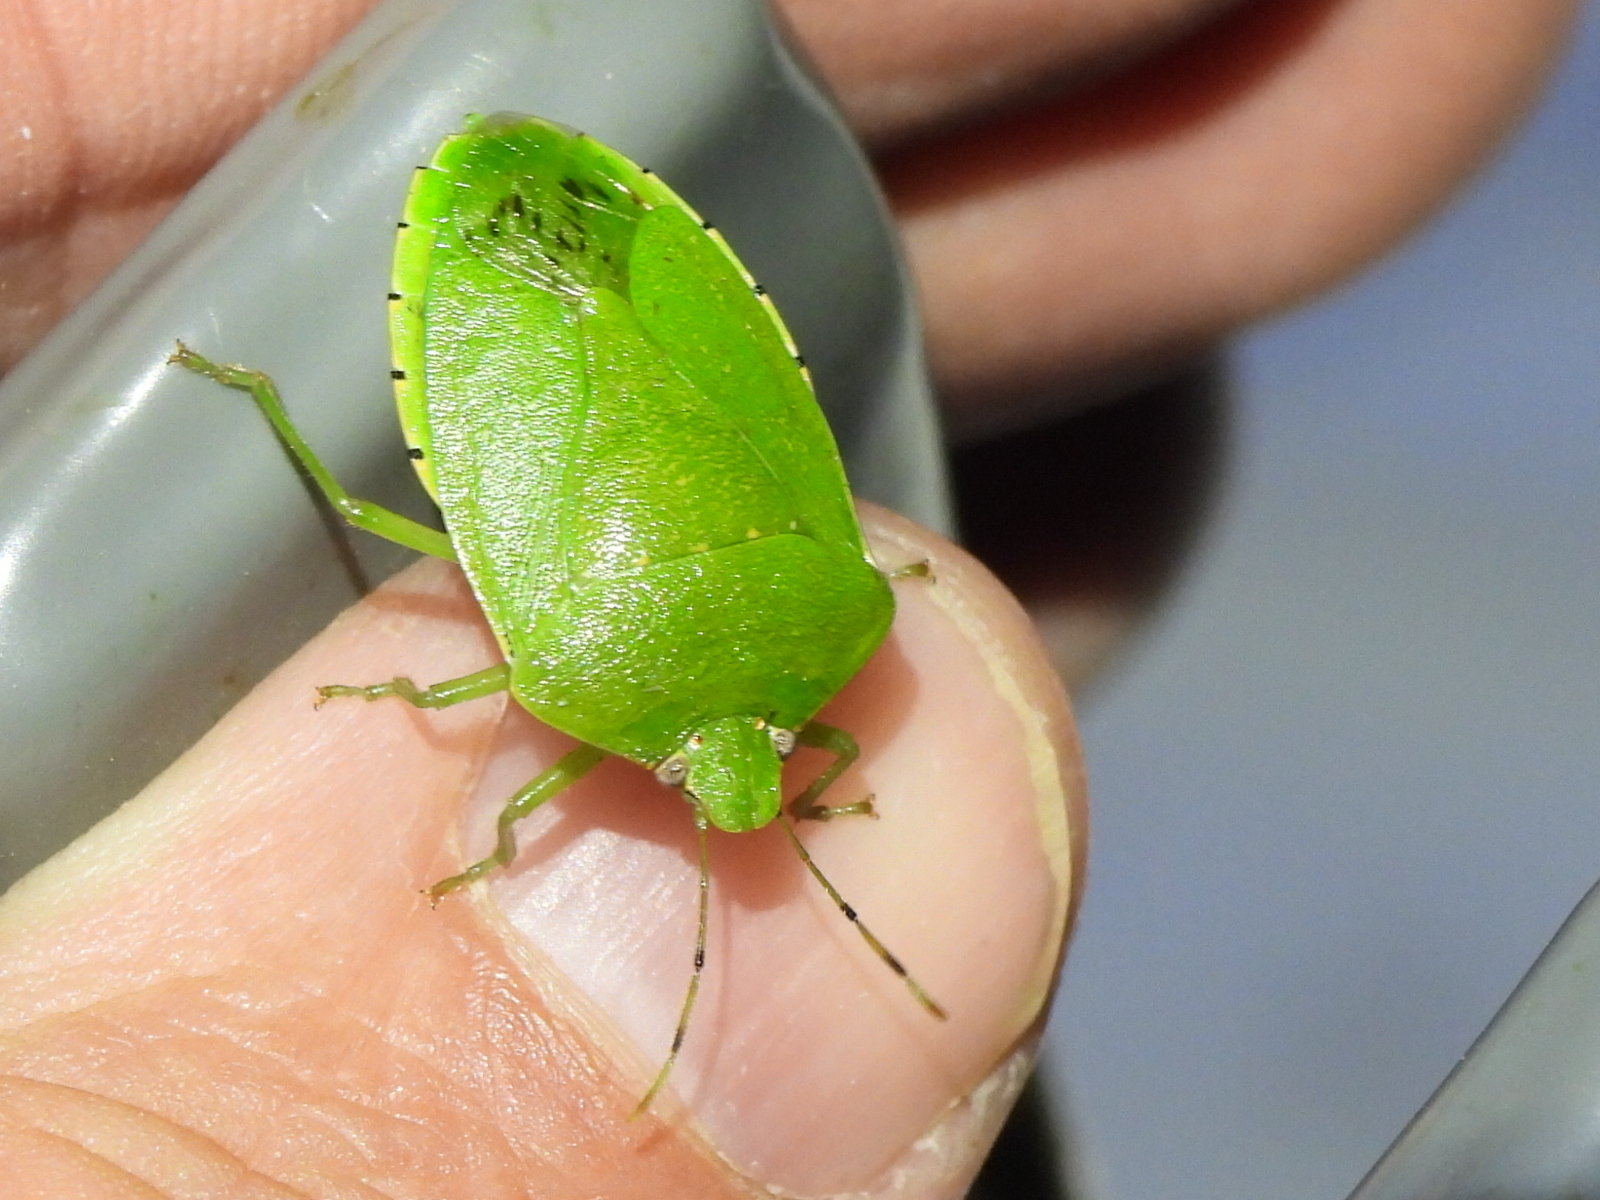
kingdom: Animalia
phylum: Arthropoda
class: Insecta
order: Hemiptera
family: Pentatomidae
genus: Chinavia
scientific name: Chinavia hilaris
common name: Green stink bug
